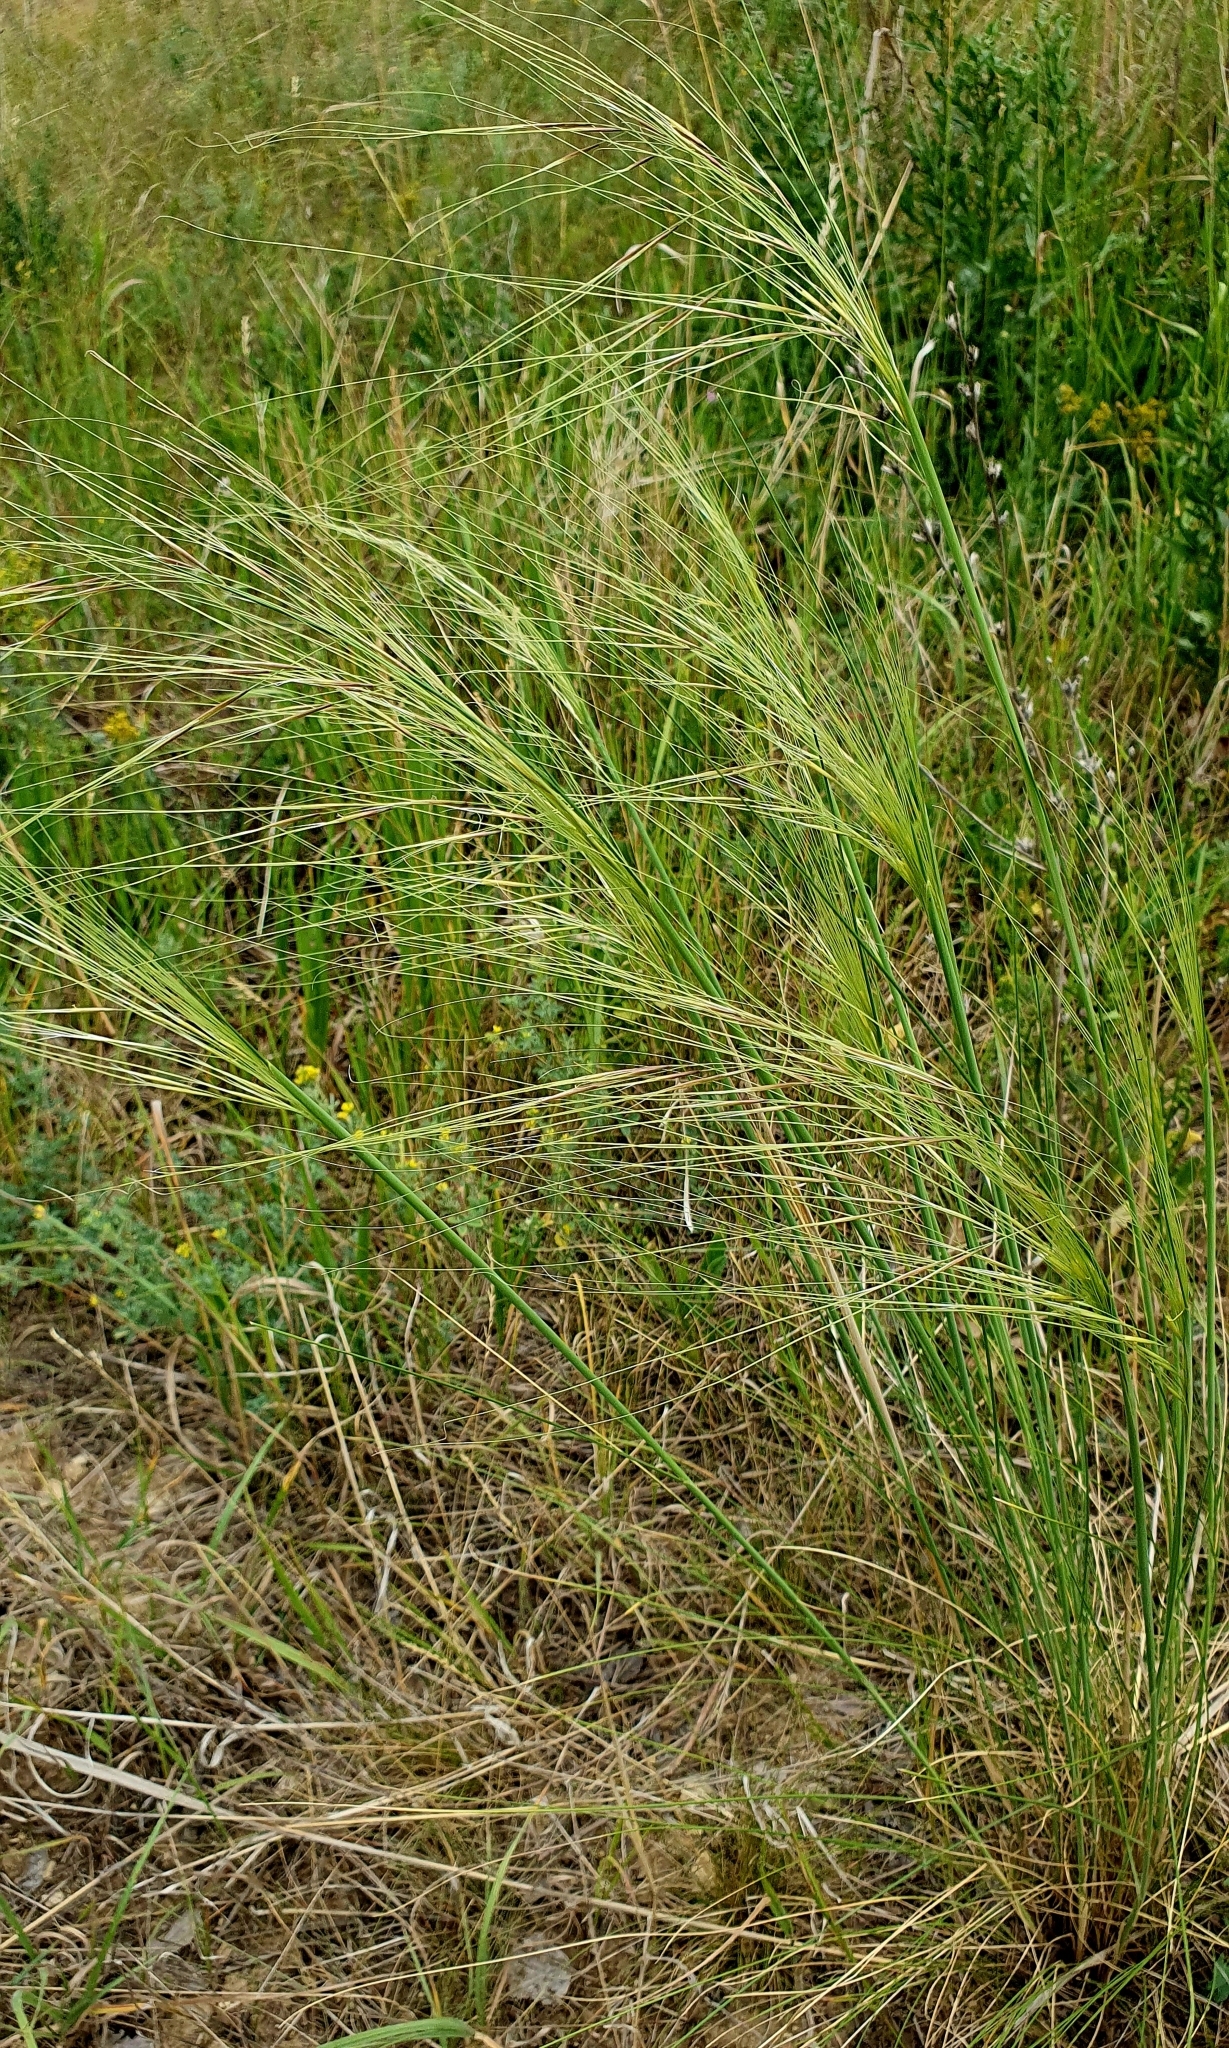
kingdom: Plantae
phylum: Tracheophyta
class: Liliopsida
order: Poales
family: Poaceae
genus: Stipa
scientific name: Stipa capillata
